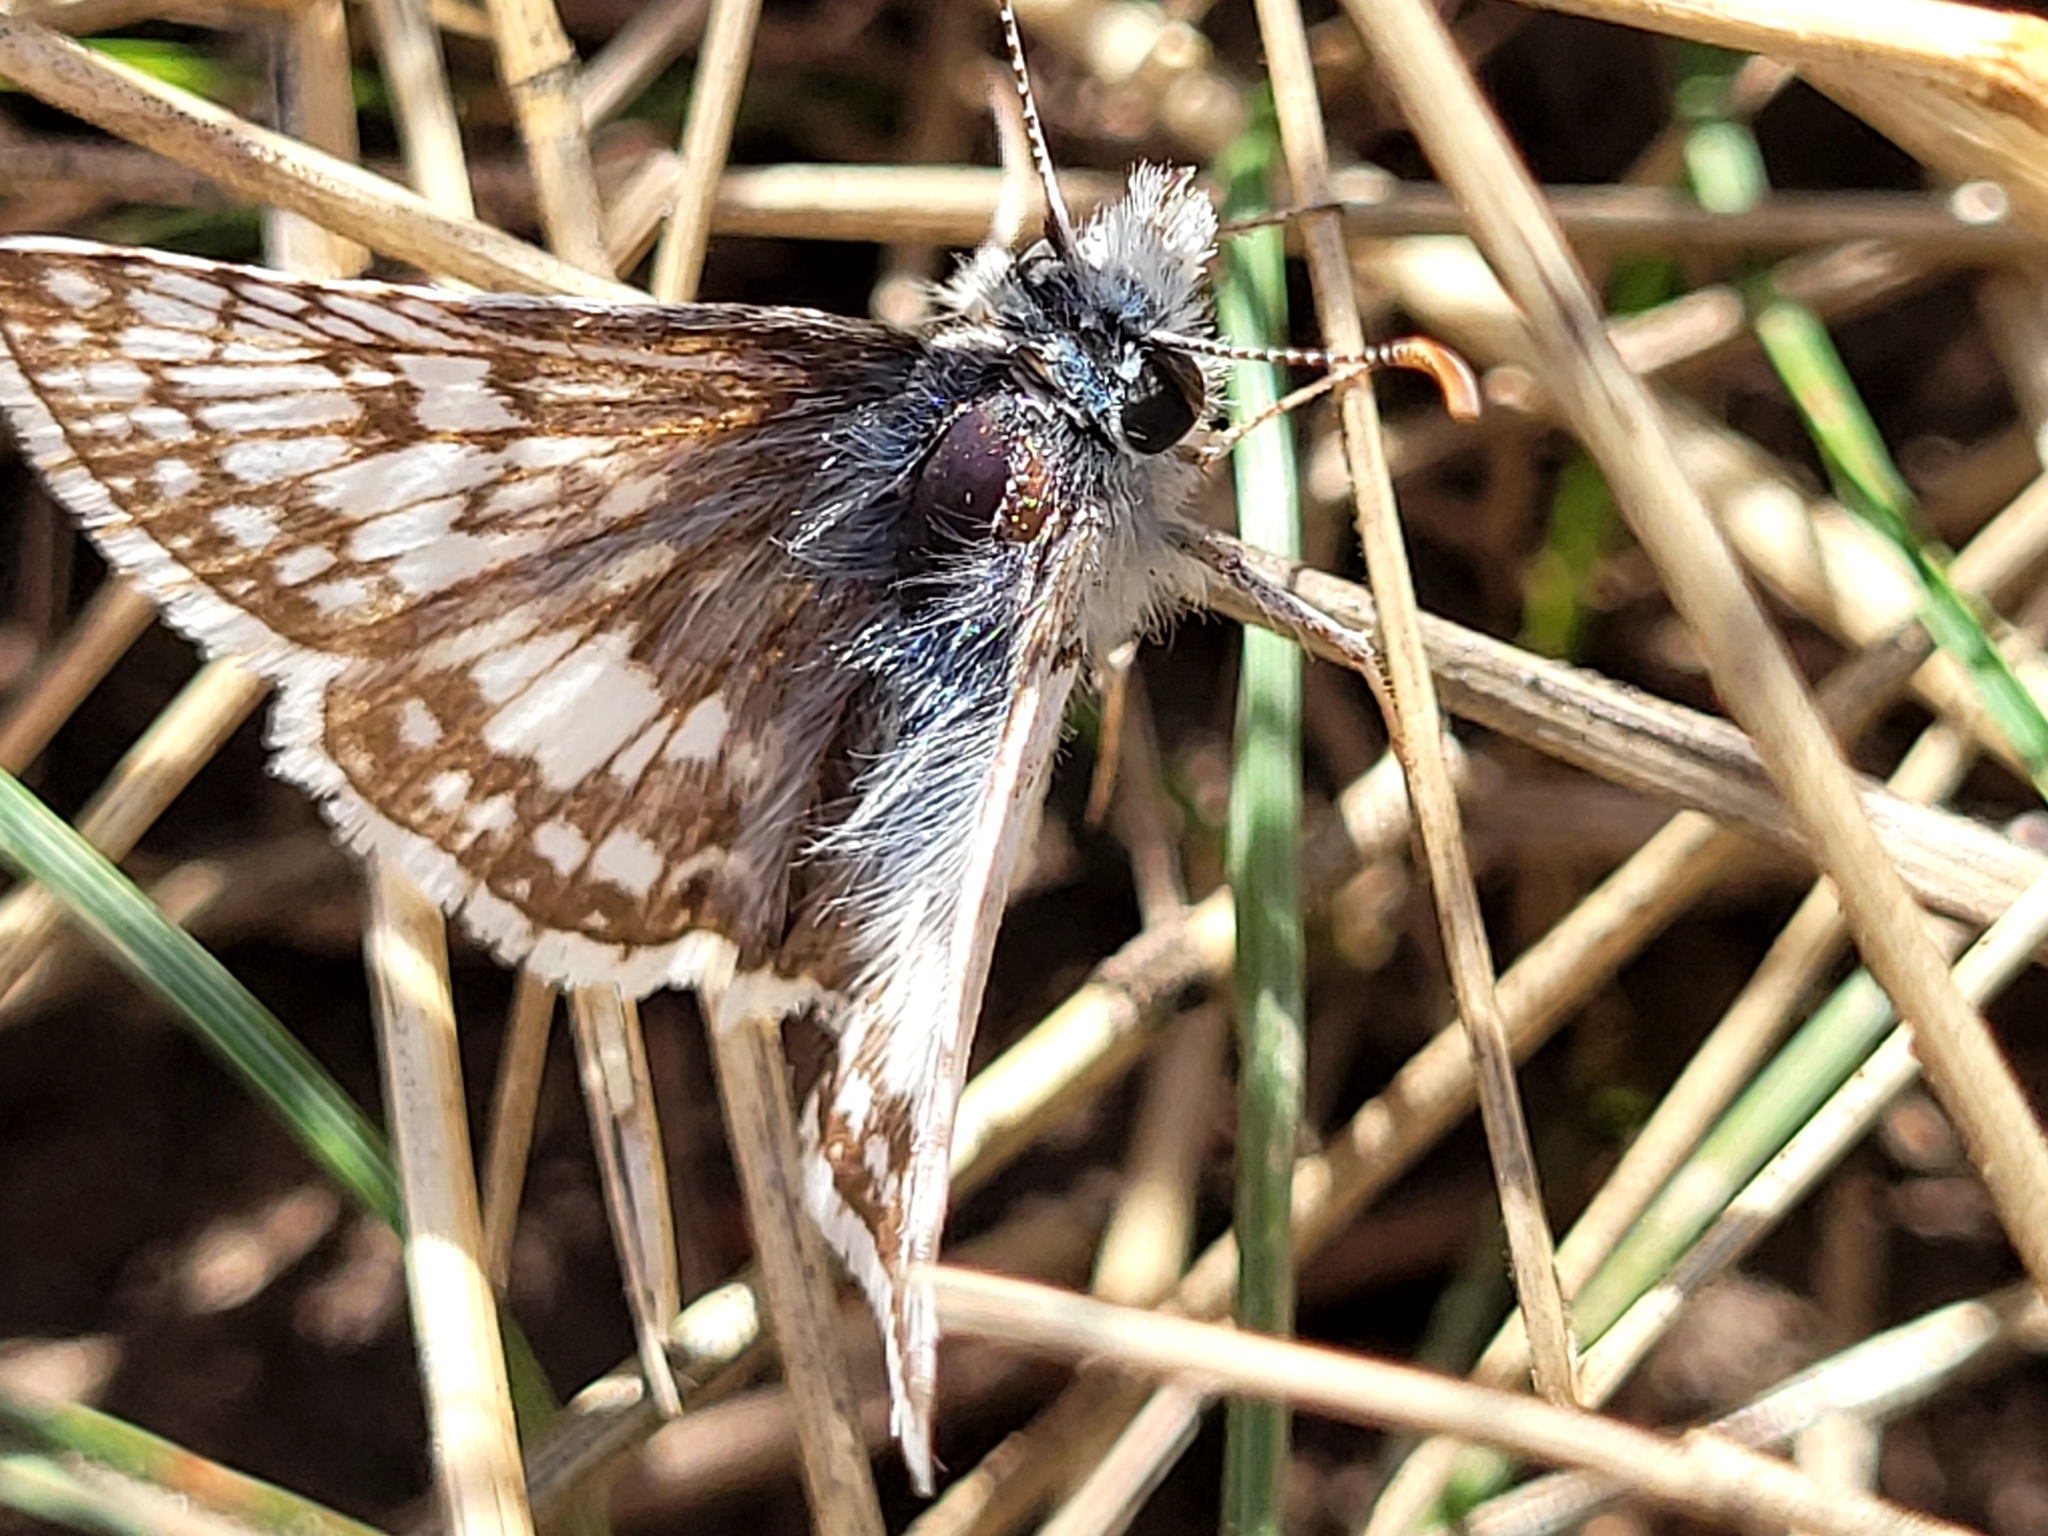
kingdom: Animalia
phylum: Arthropoda
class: Insecta
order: Lepidoptera
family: Hesperiidae
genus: Burnsius
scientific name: Burnsius communis
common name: Common checkered-skipper
